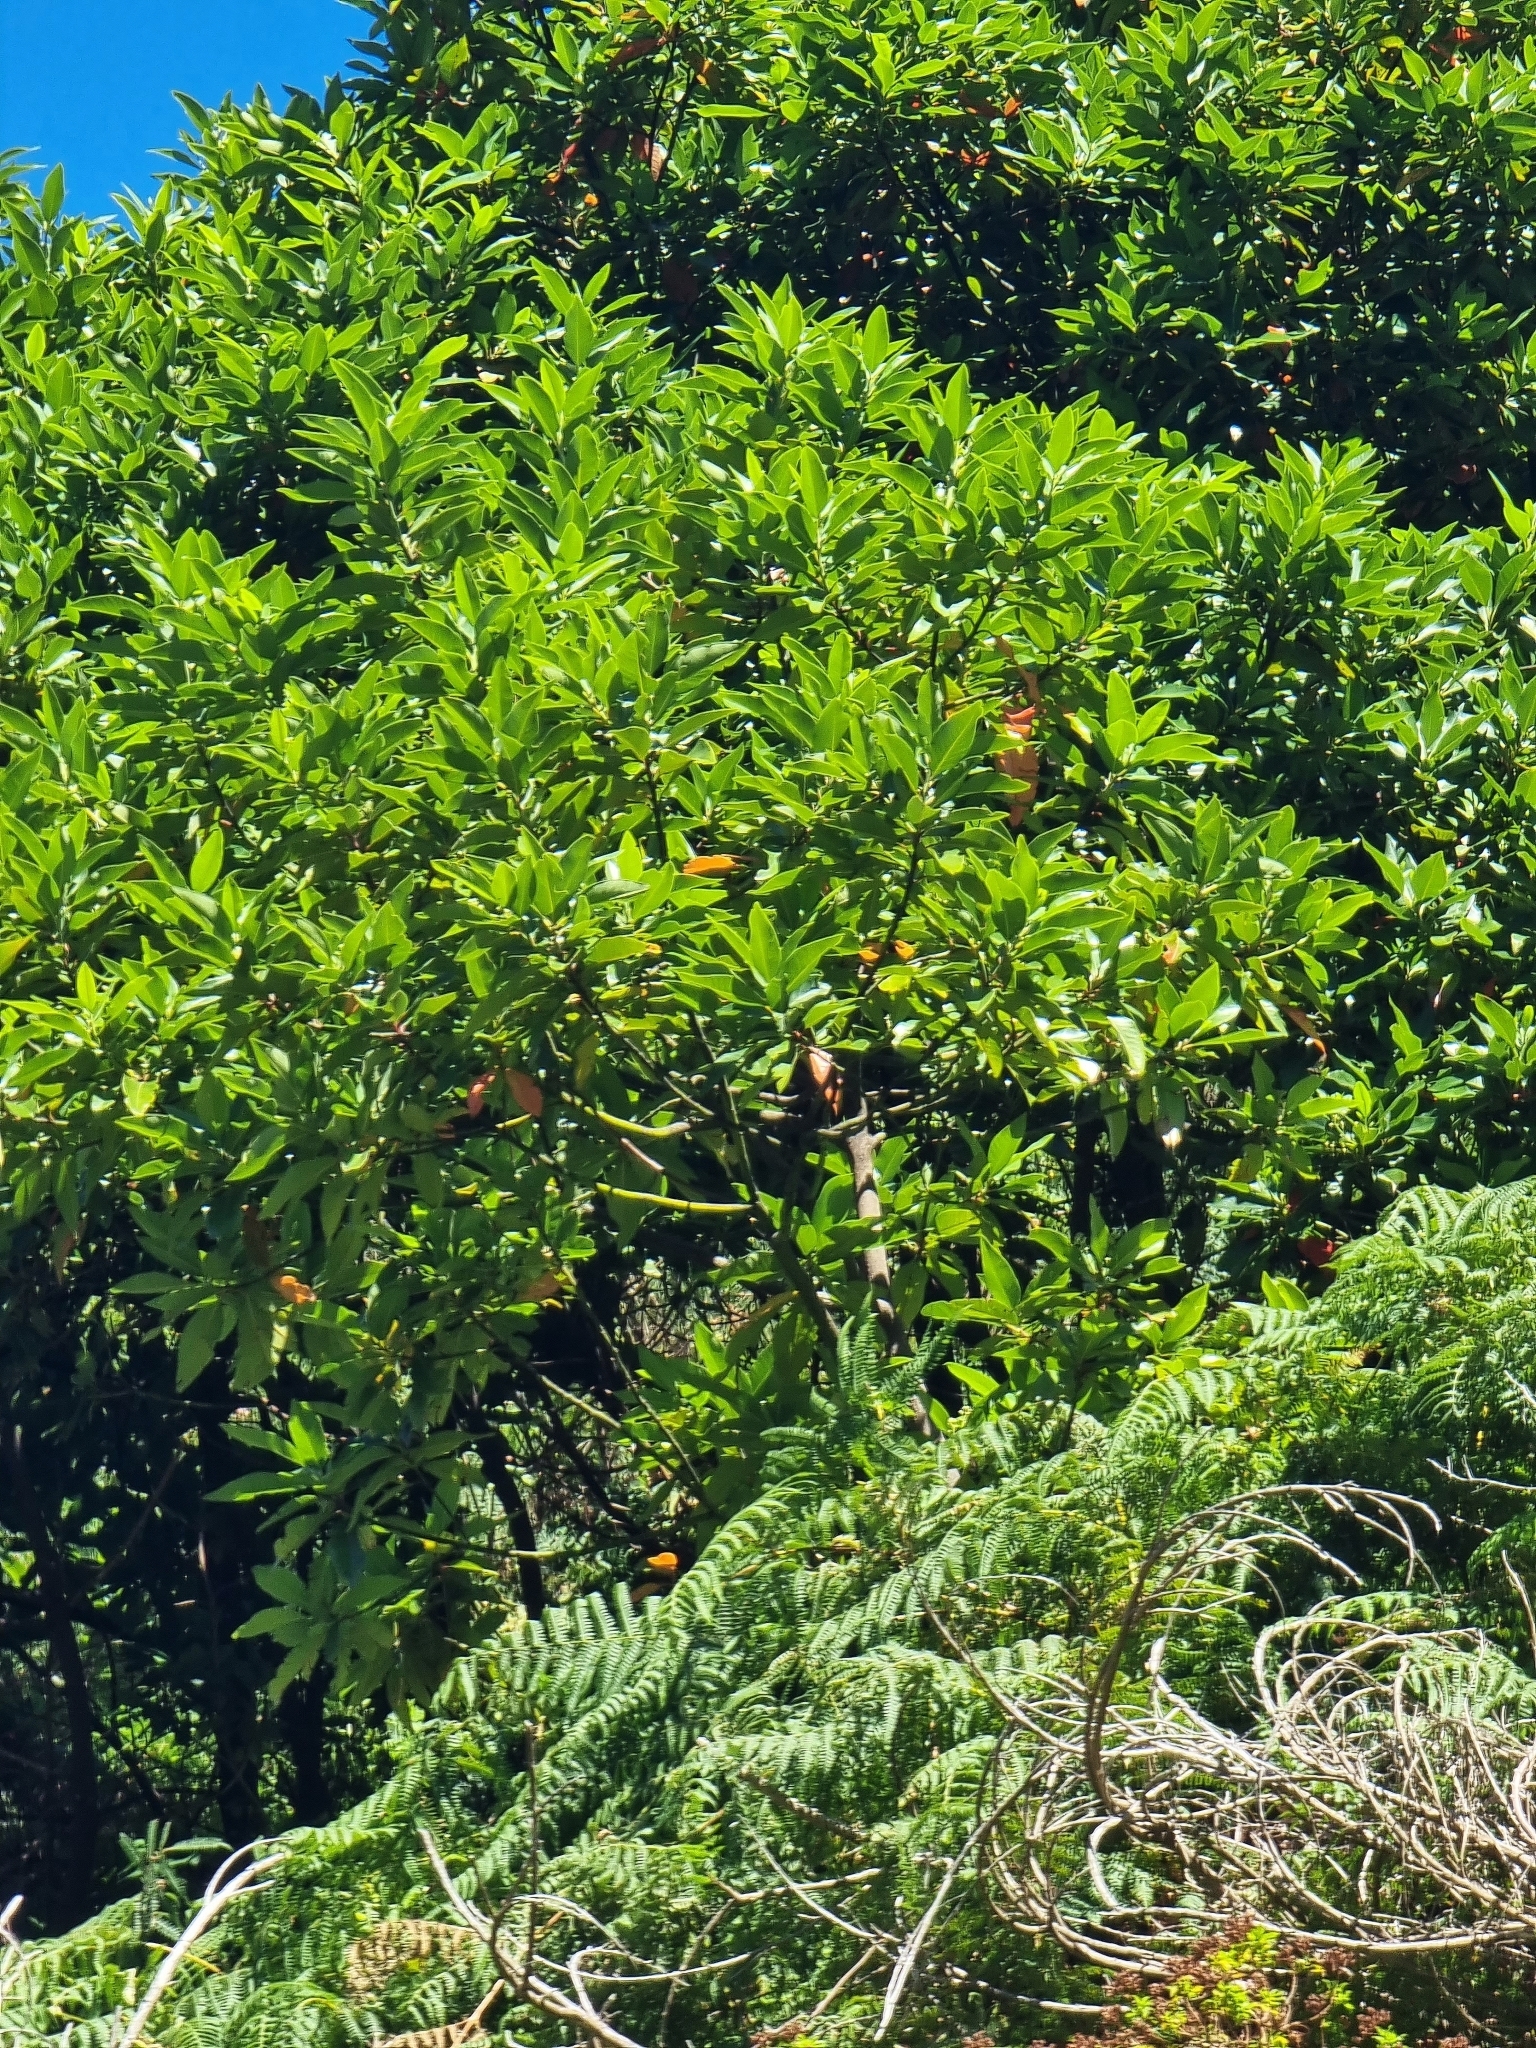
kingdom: Plantae
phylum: Tracheophyta
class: Magnoliopsida
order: Laurales
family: Lauraceae
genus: Persea
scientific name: Persea indica
